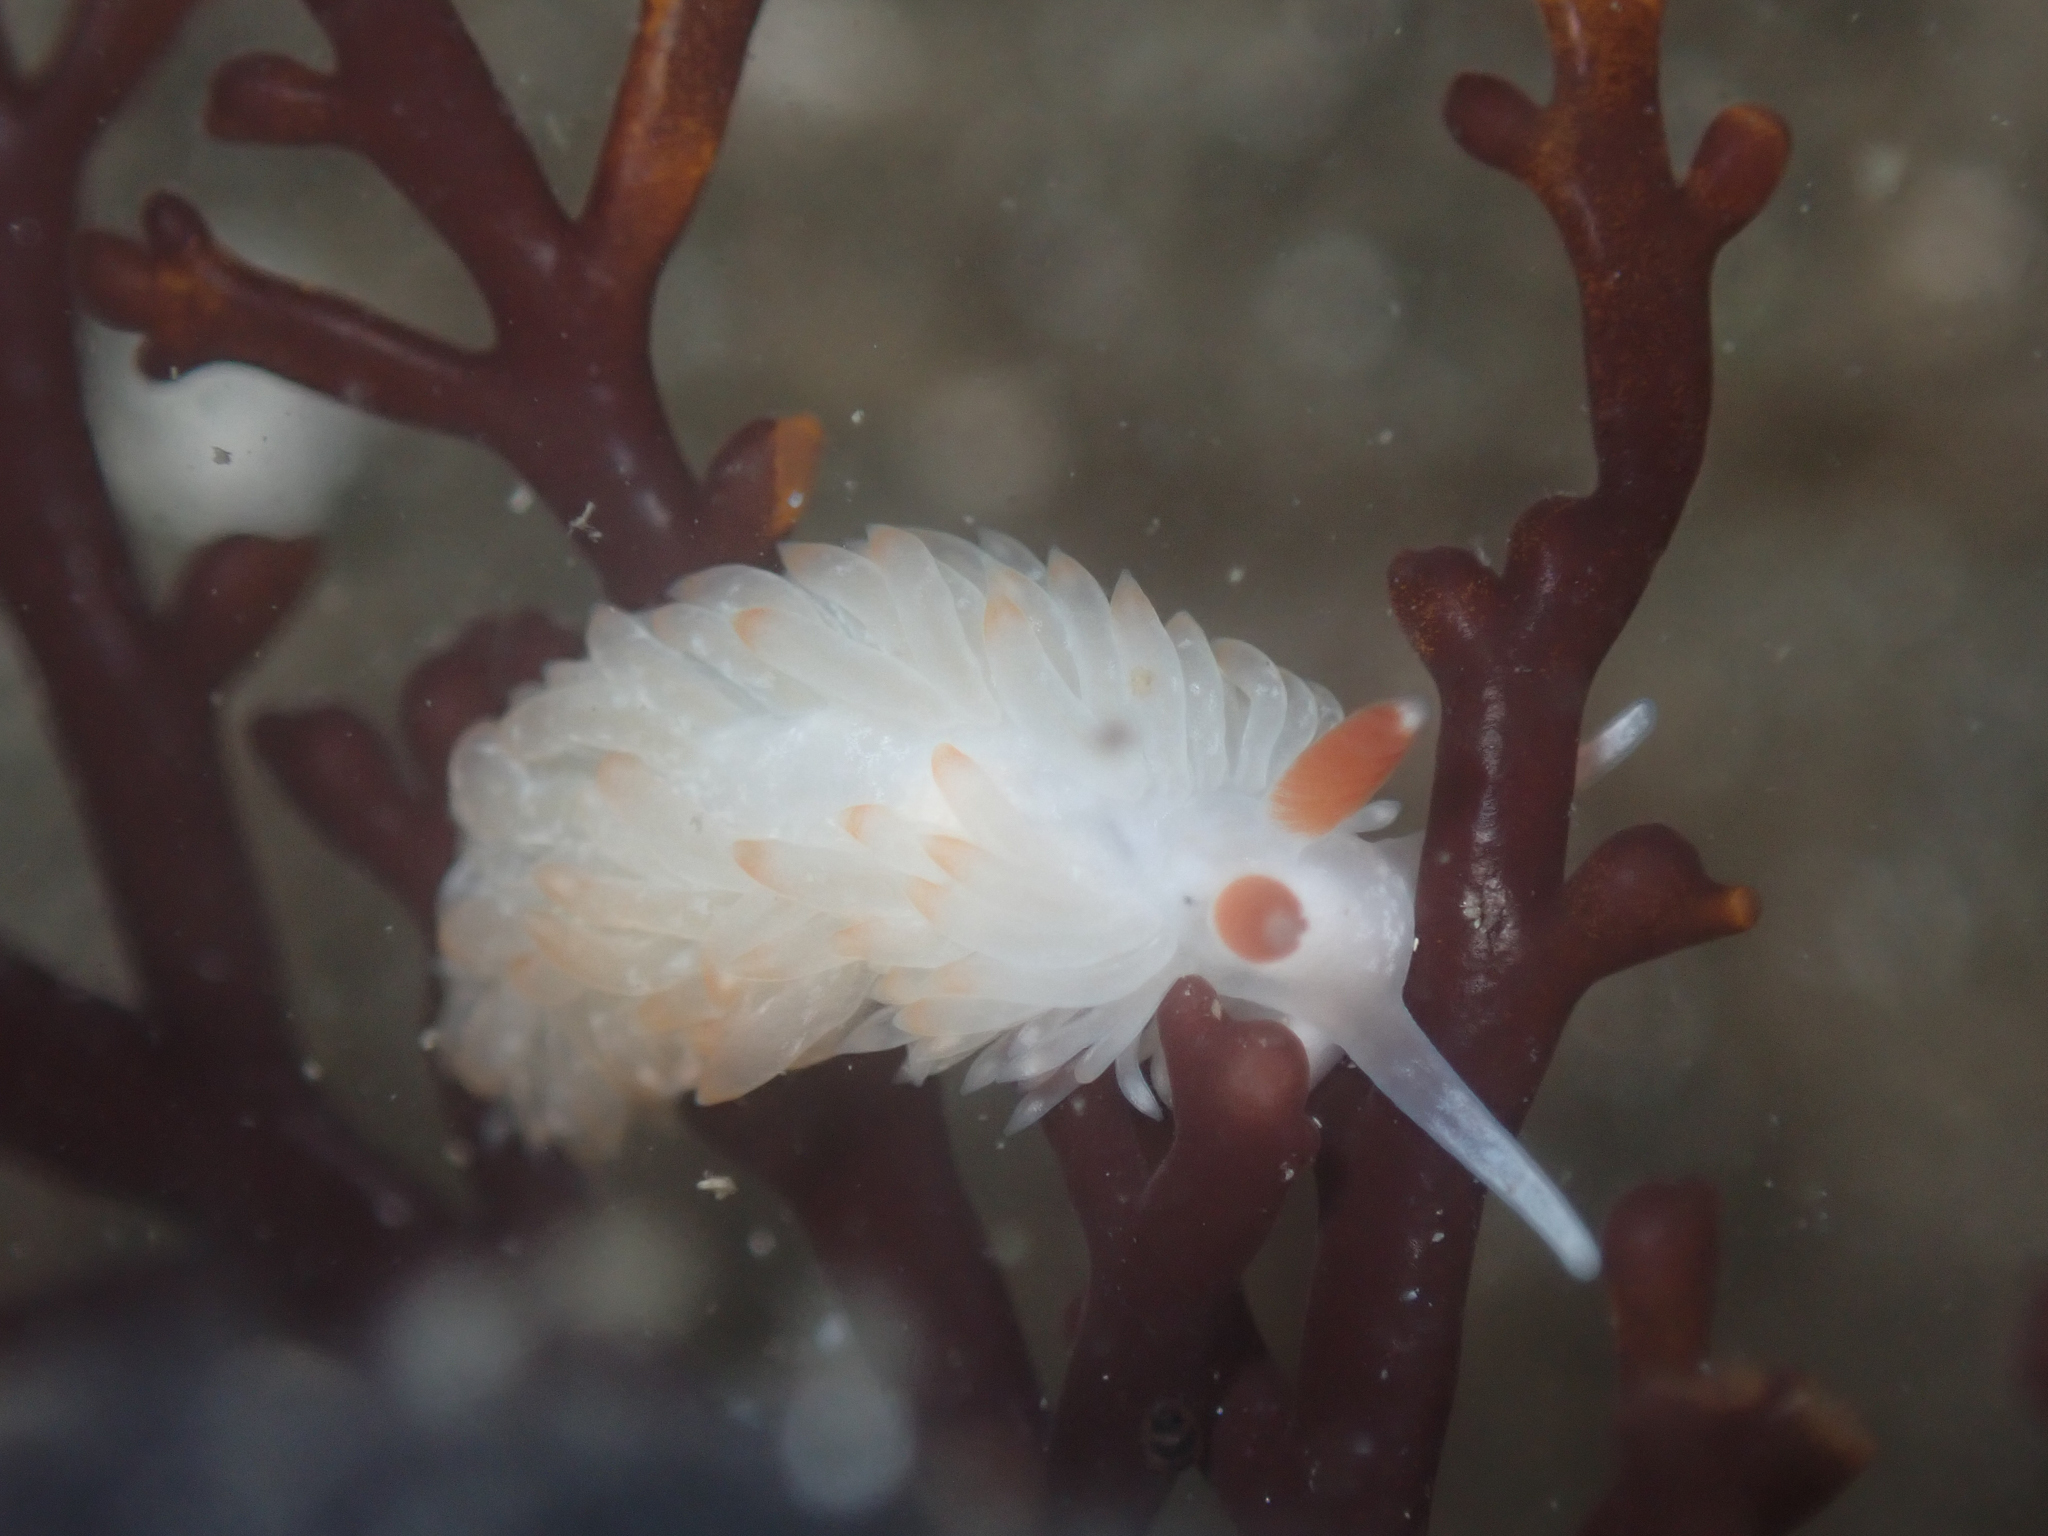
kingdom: Animalia
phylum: Mollusca
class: Gastropoda
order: Nudibranchia
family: Aeolidiidae
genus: Anteaeolidiella
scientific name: Anteaeolidiella oliviae
